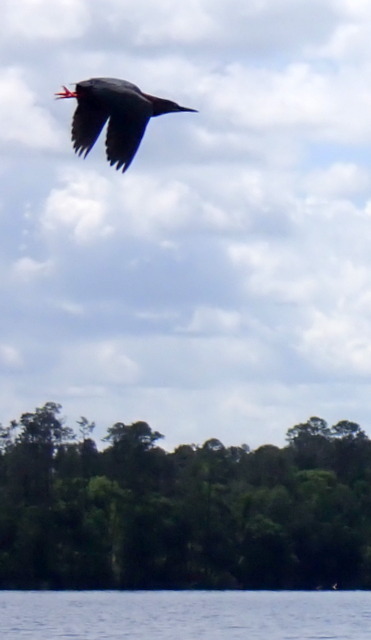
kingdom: Animalia
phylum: Chordata
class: Aves
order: Pelecaniformes
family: Ardeidae
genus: Butorides
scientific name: Butorides virescens
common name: Green heron
